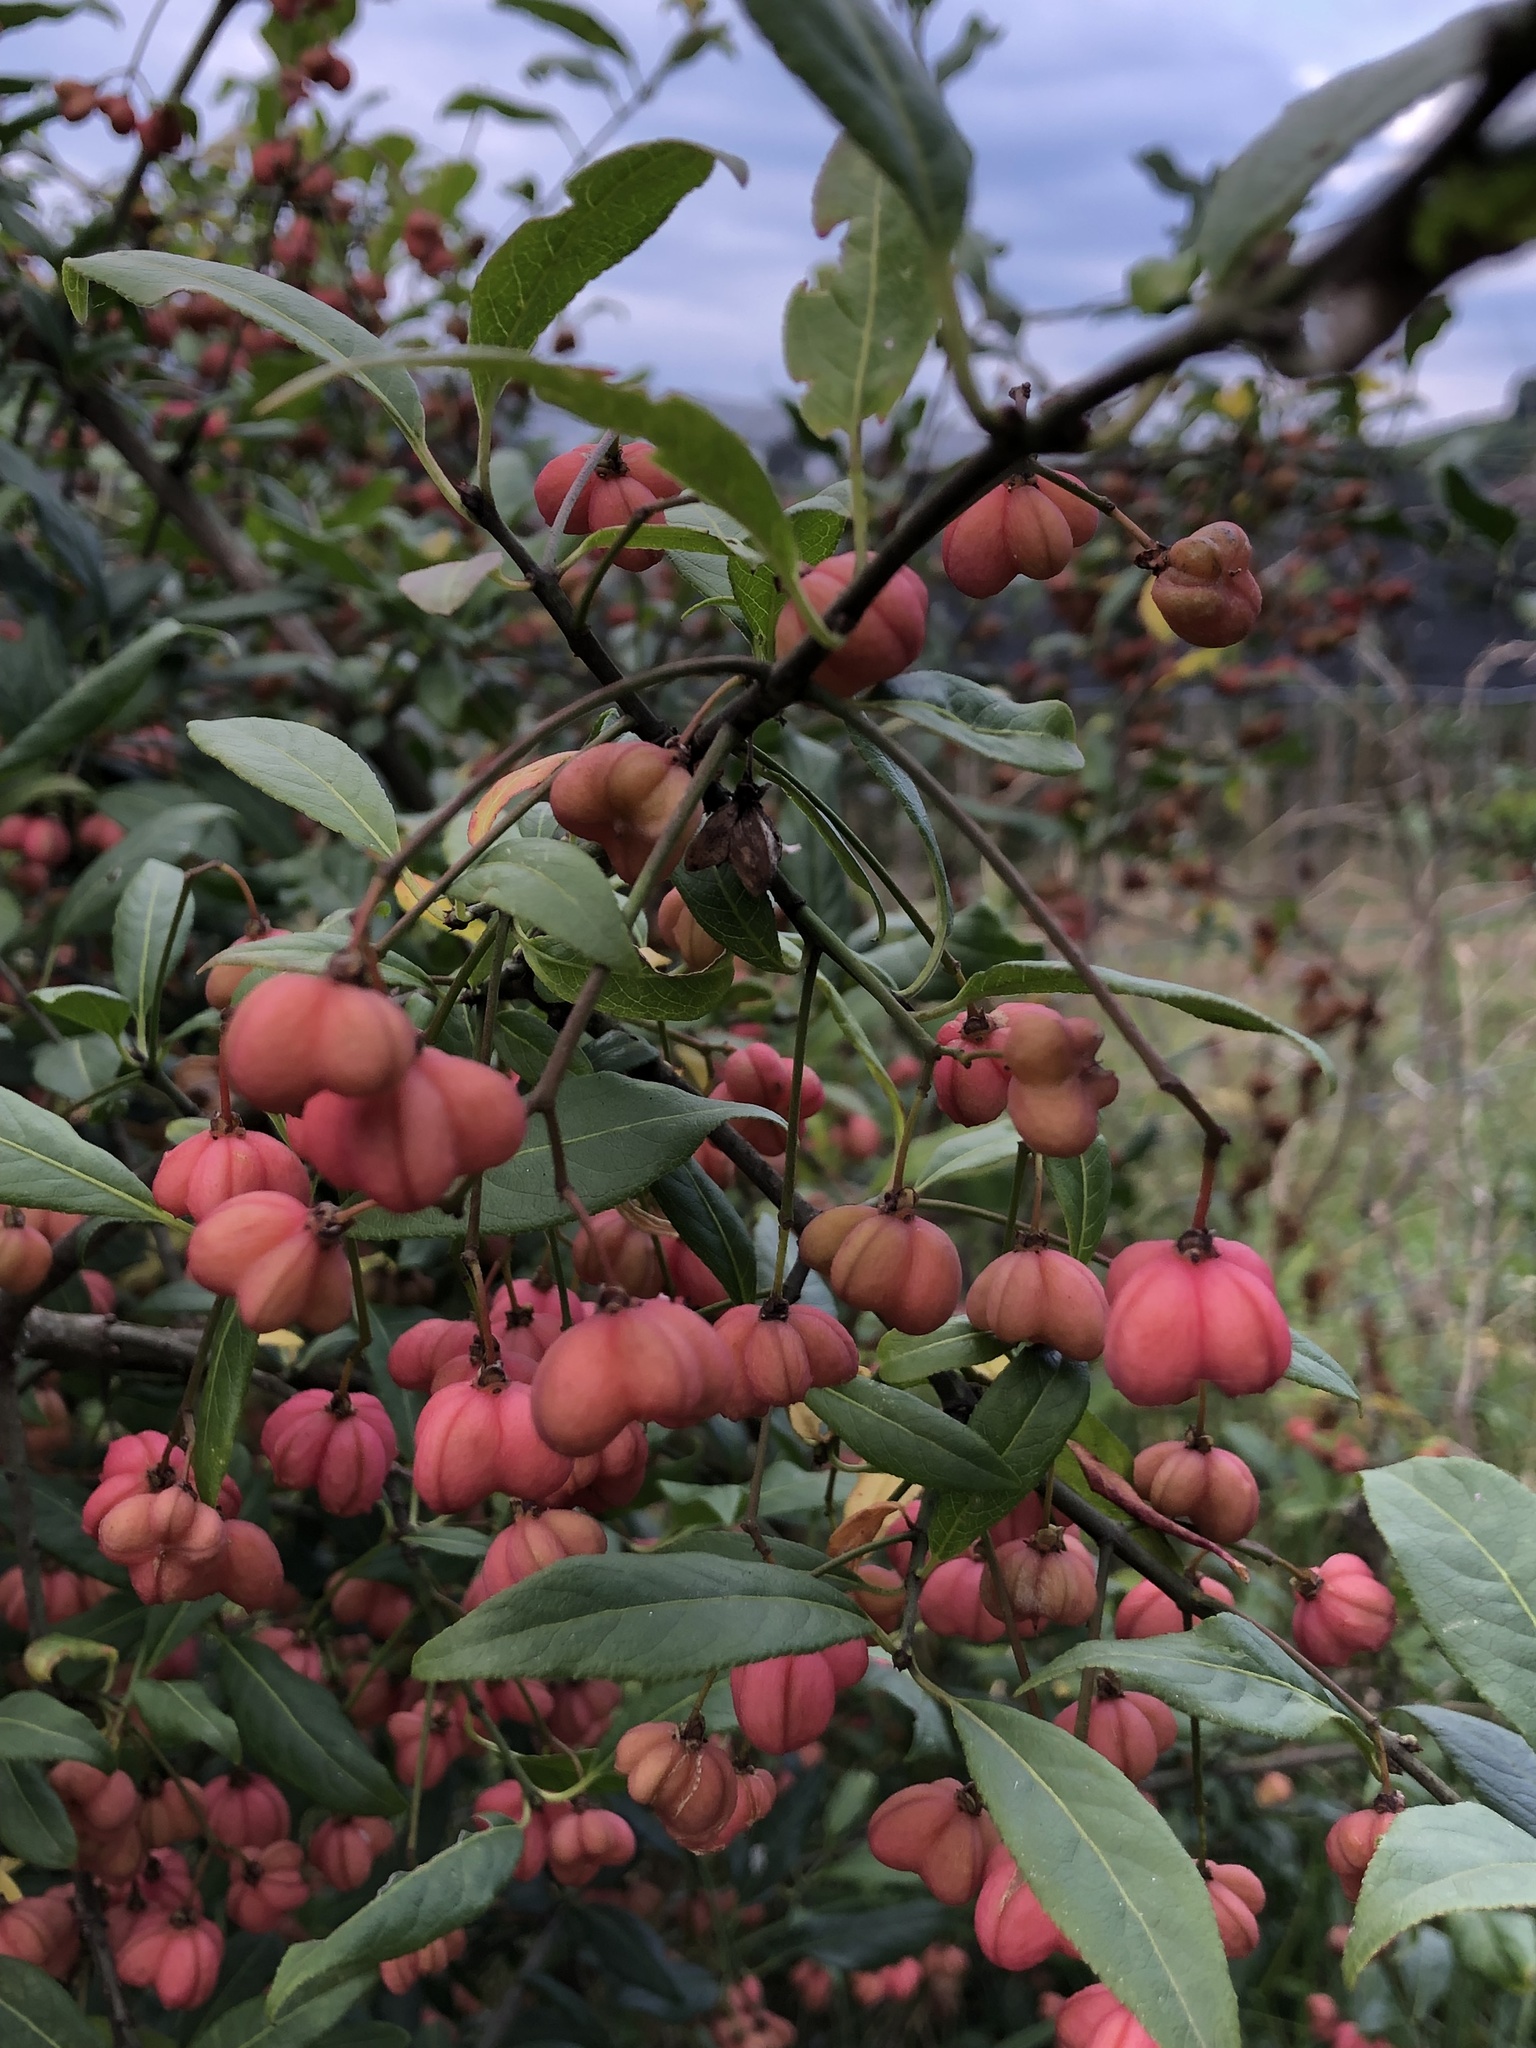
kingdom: Plantae
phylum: Tracheophyta
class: Magnoliopsida
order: Celastrales
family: Celastraceae
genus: Euonymus
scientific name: Euonymus europaeus
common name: Spindle
